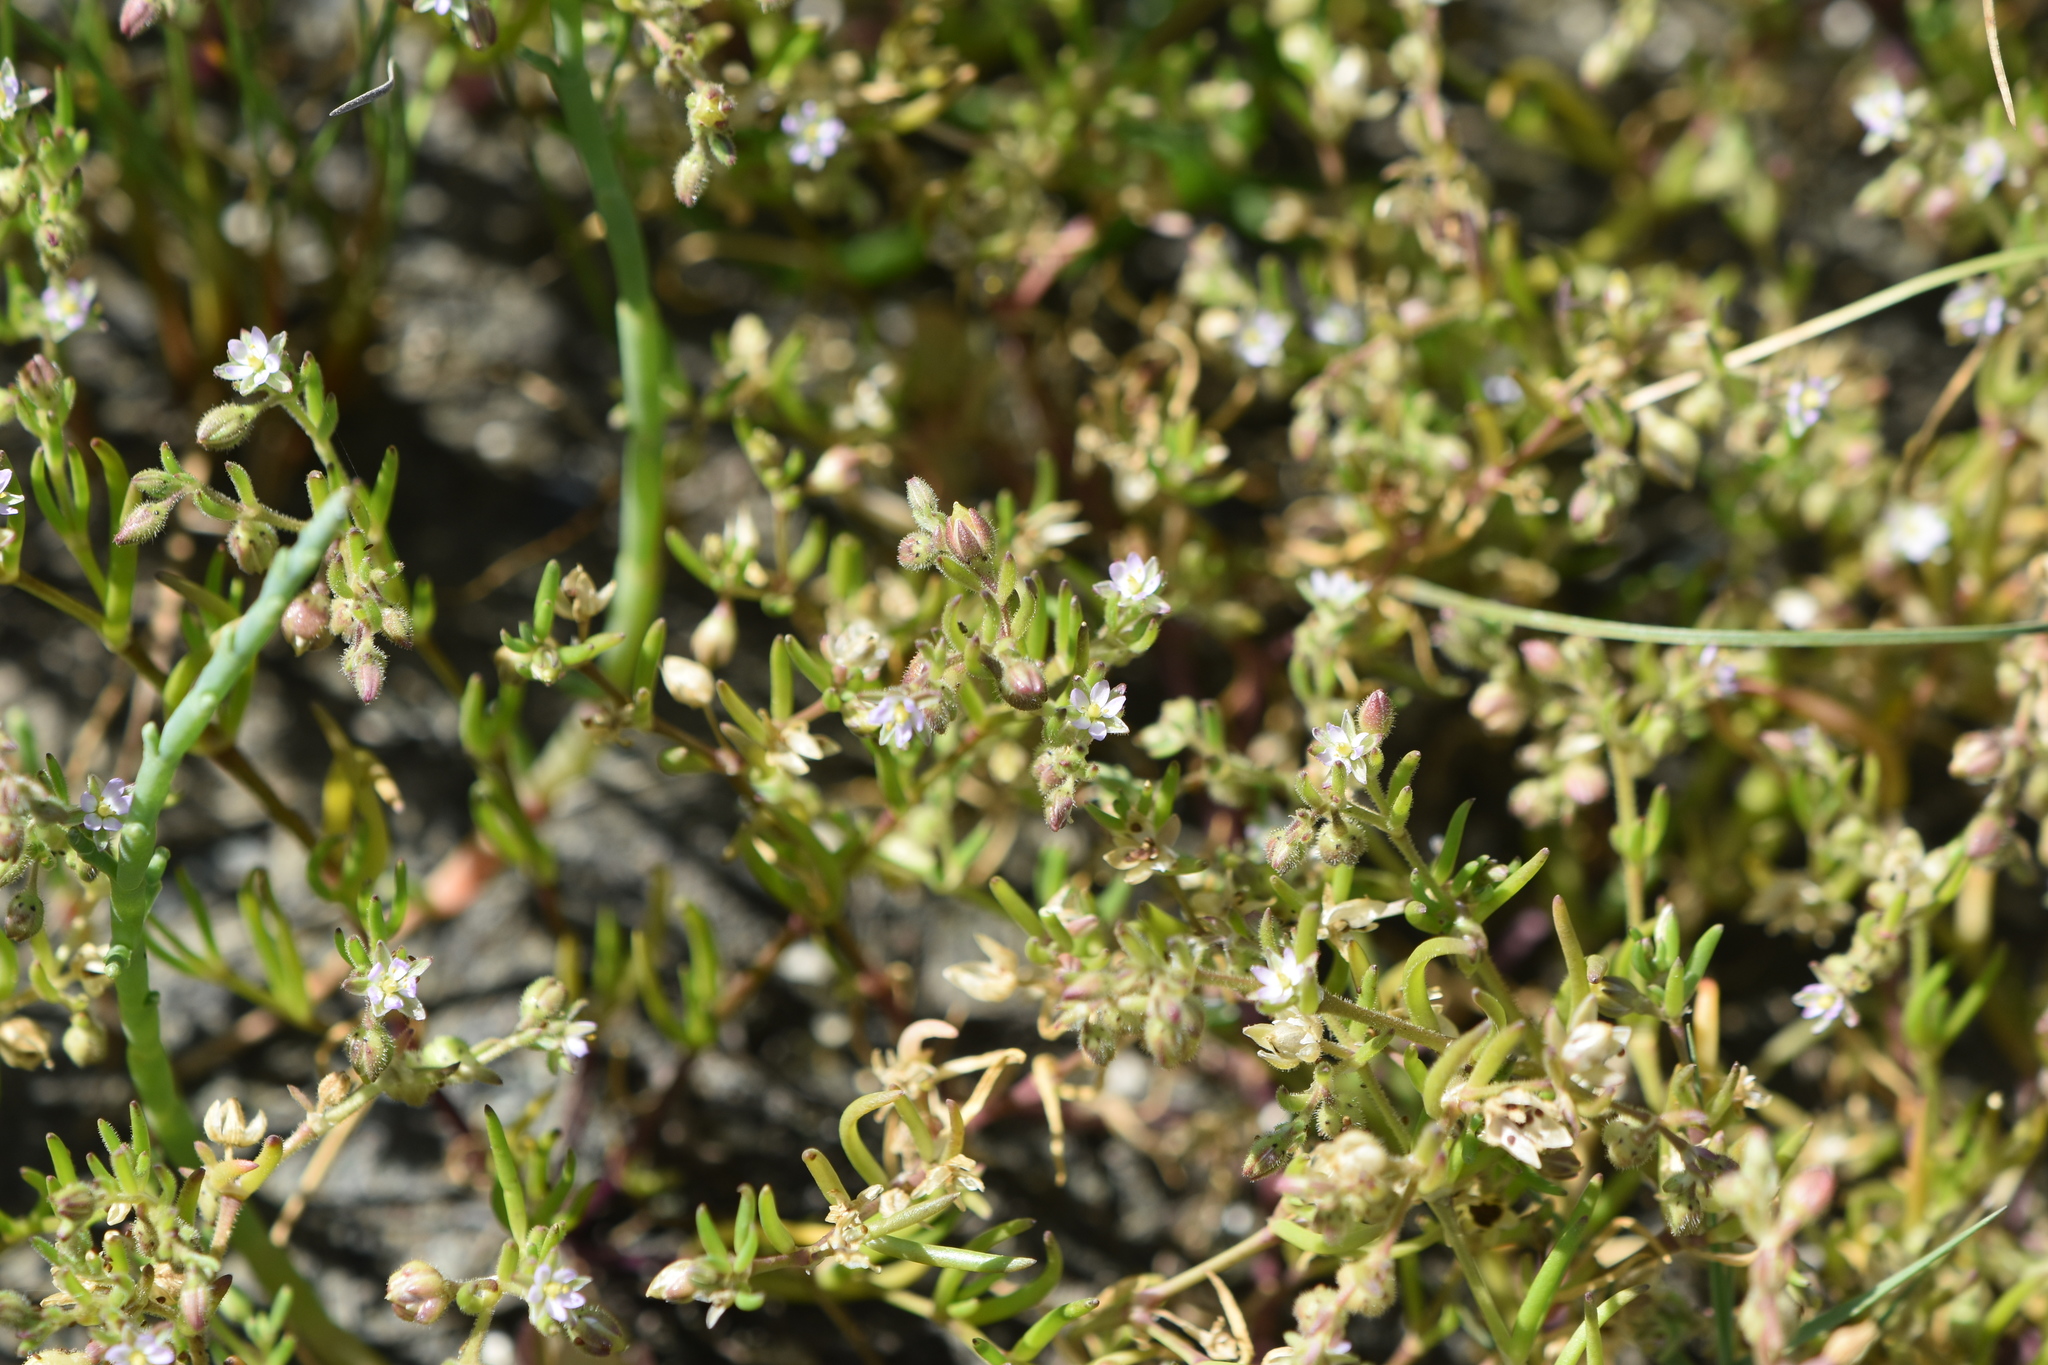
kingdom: Plantae
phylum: Tracheophyta
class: Magnoliopsida
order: Caryophyllales
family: Caryophyllaceae
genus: Spergularia
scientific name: Spergularia marina
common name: Lesser sea-spurrey
